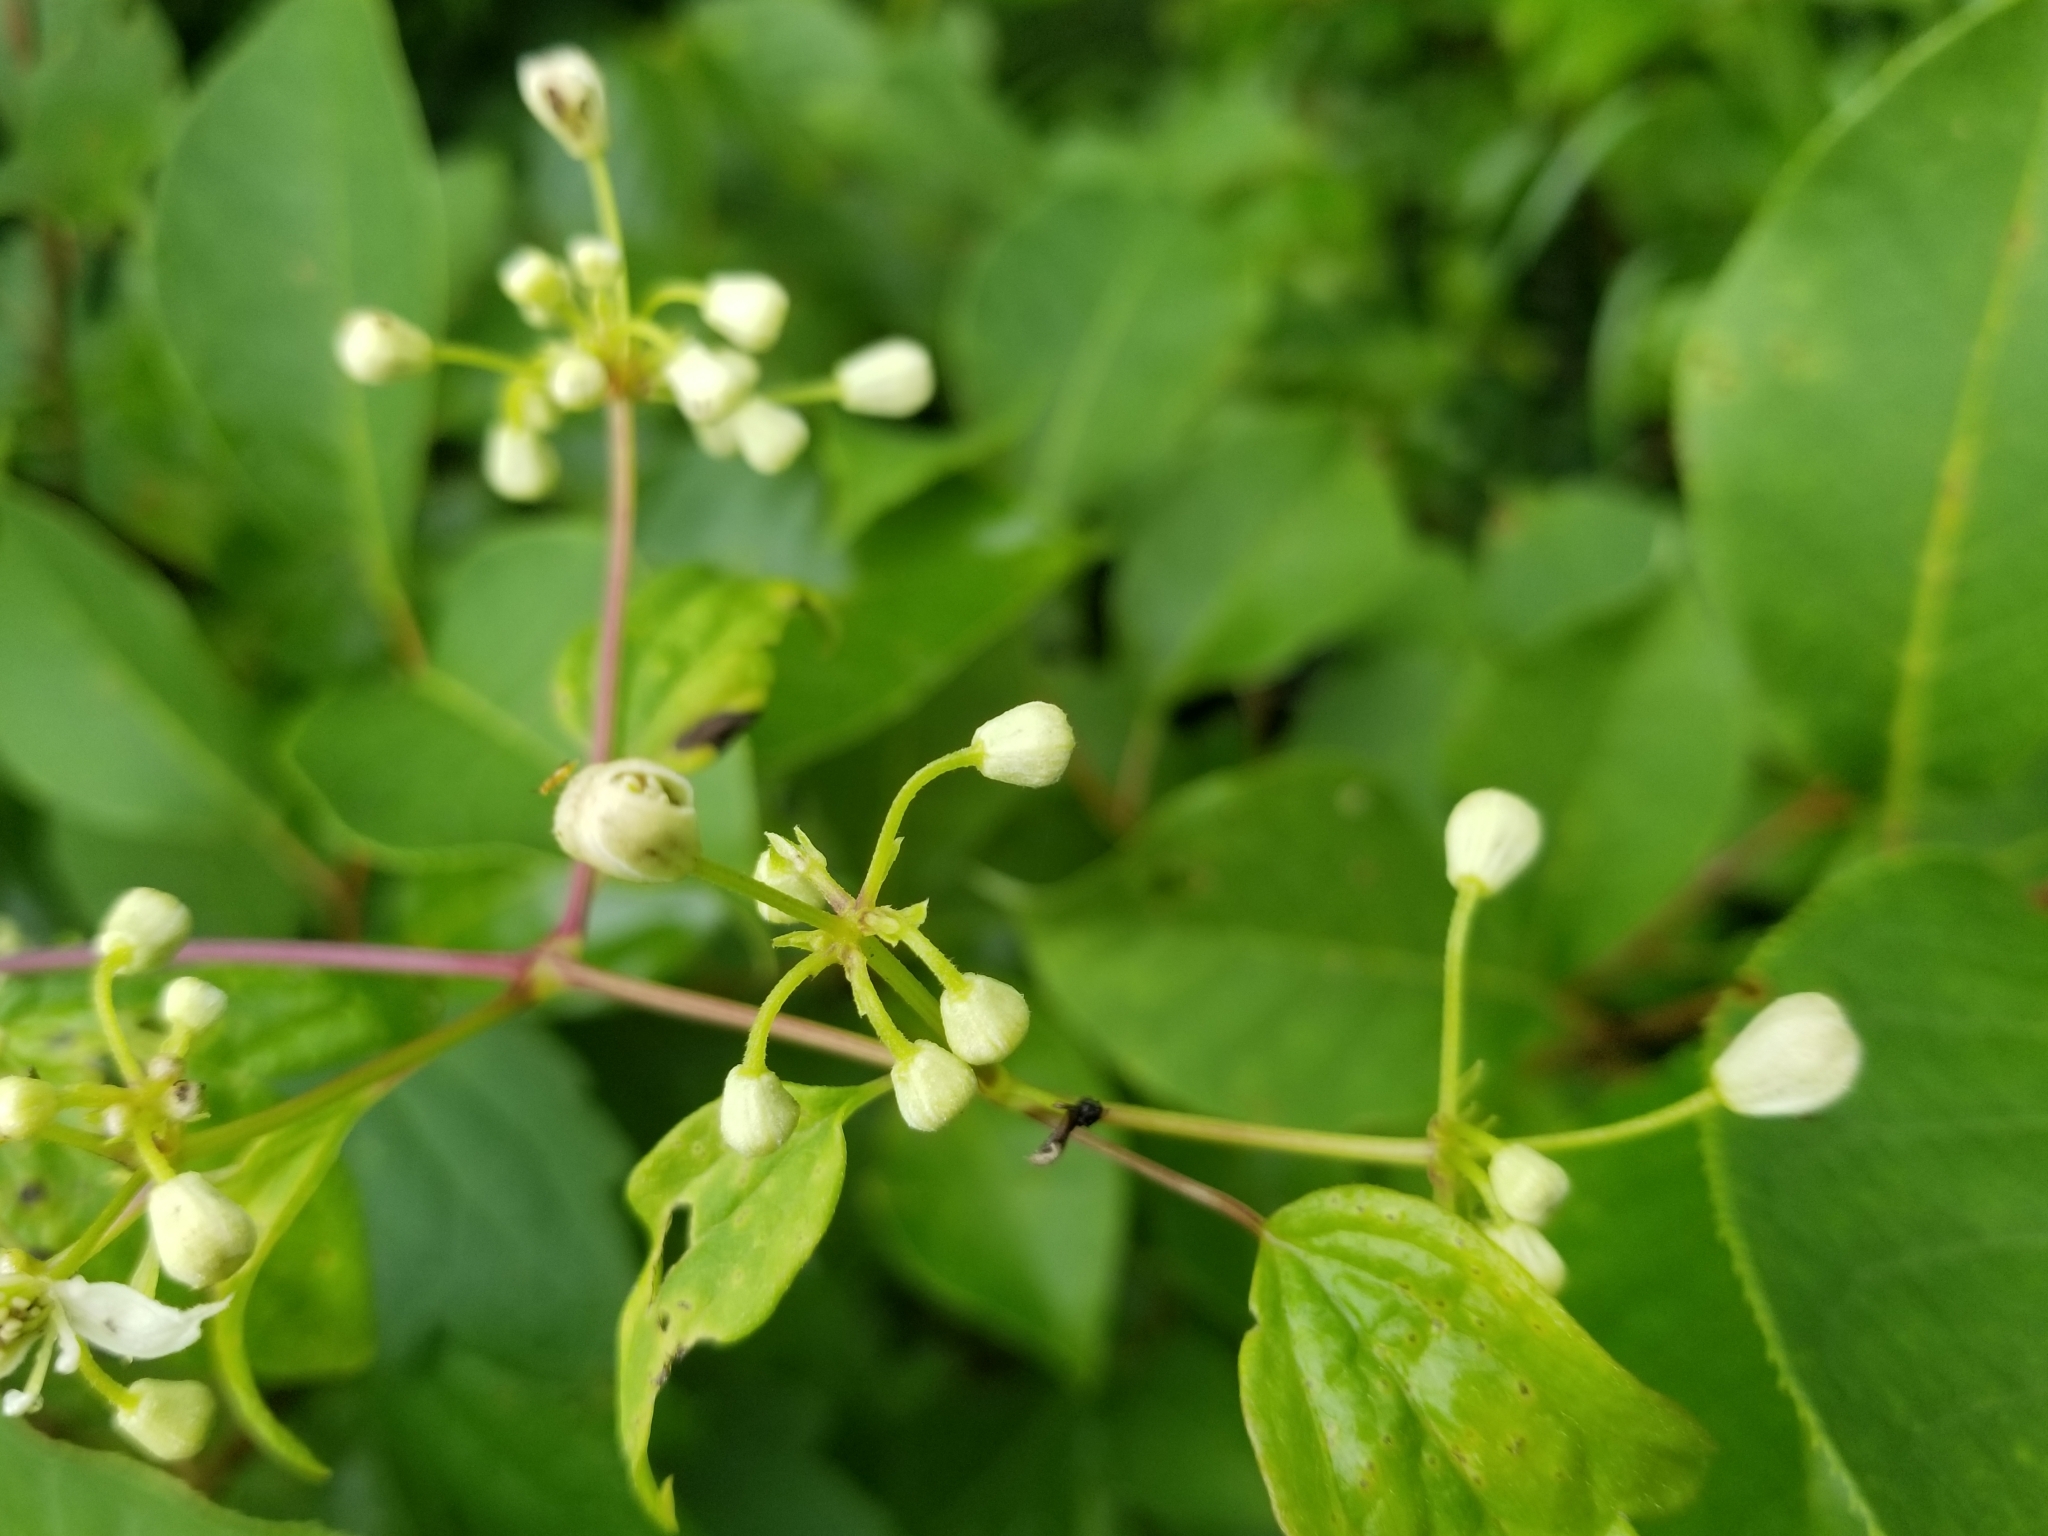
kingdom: Plantae
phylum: Tracheophyta
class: Magnoliopsida
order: Ranunculales
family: Ranunculaceae
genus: Clematis
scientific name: Clematis virginiana
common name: Virgin's-bower
